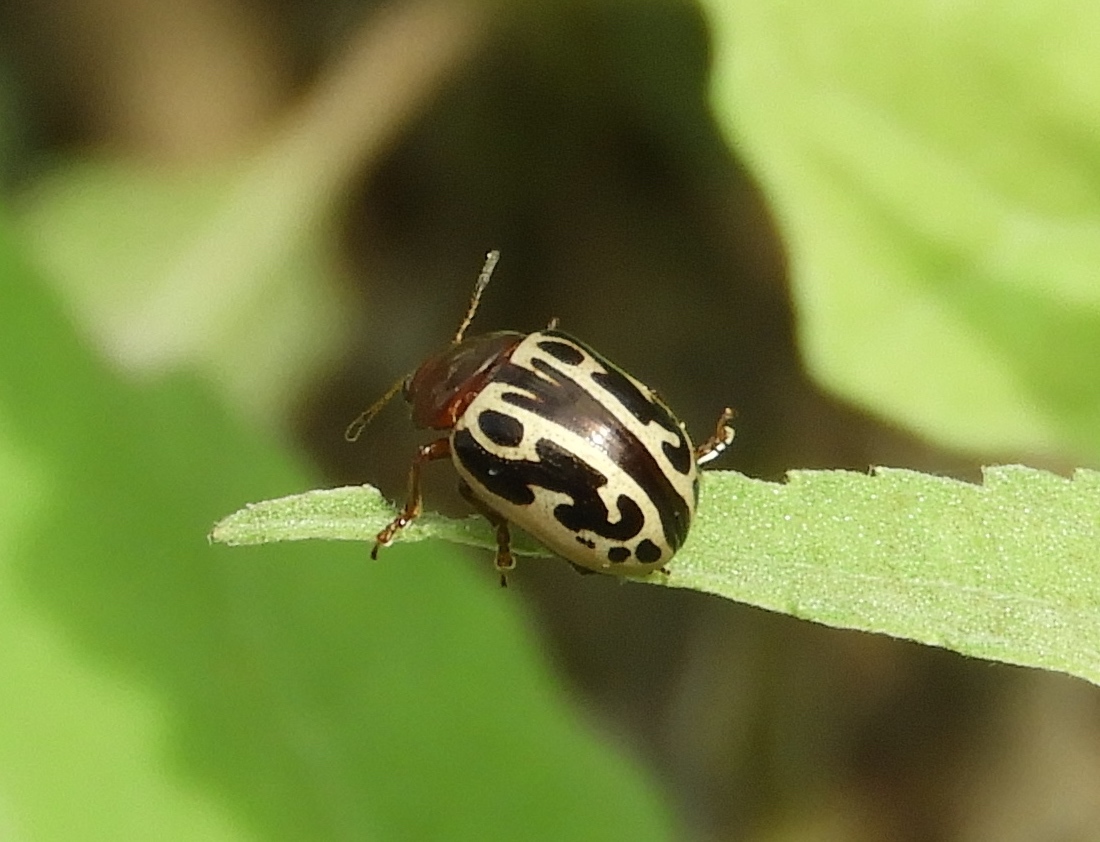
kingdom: Animalia
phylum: Arthropoda
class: Insecta
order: Coleoptera
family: Chrysomelidae
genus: Calligrapha
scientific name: Calligrapha
